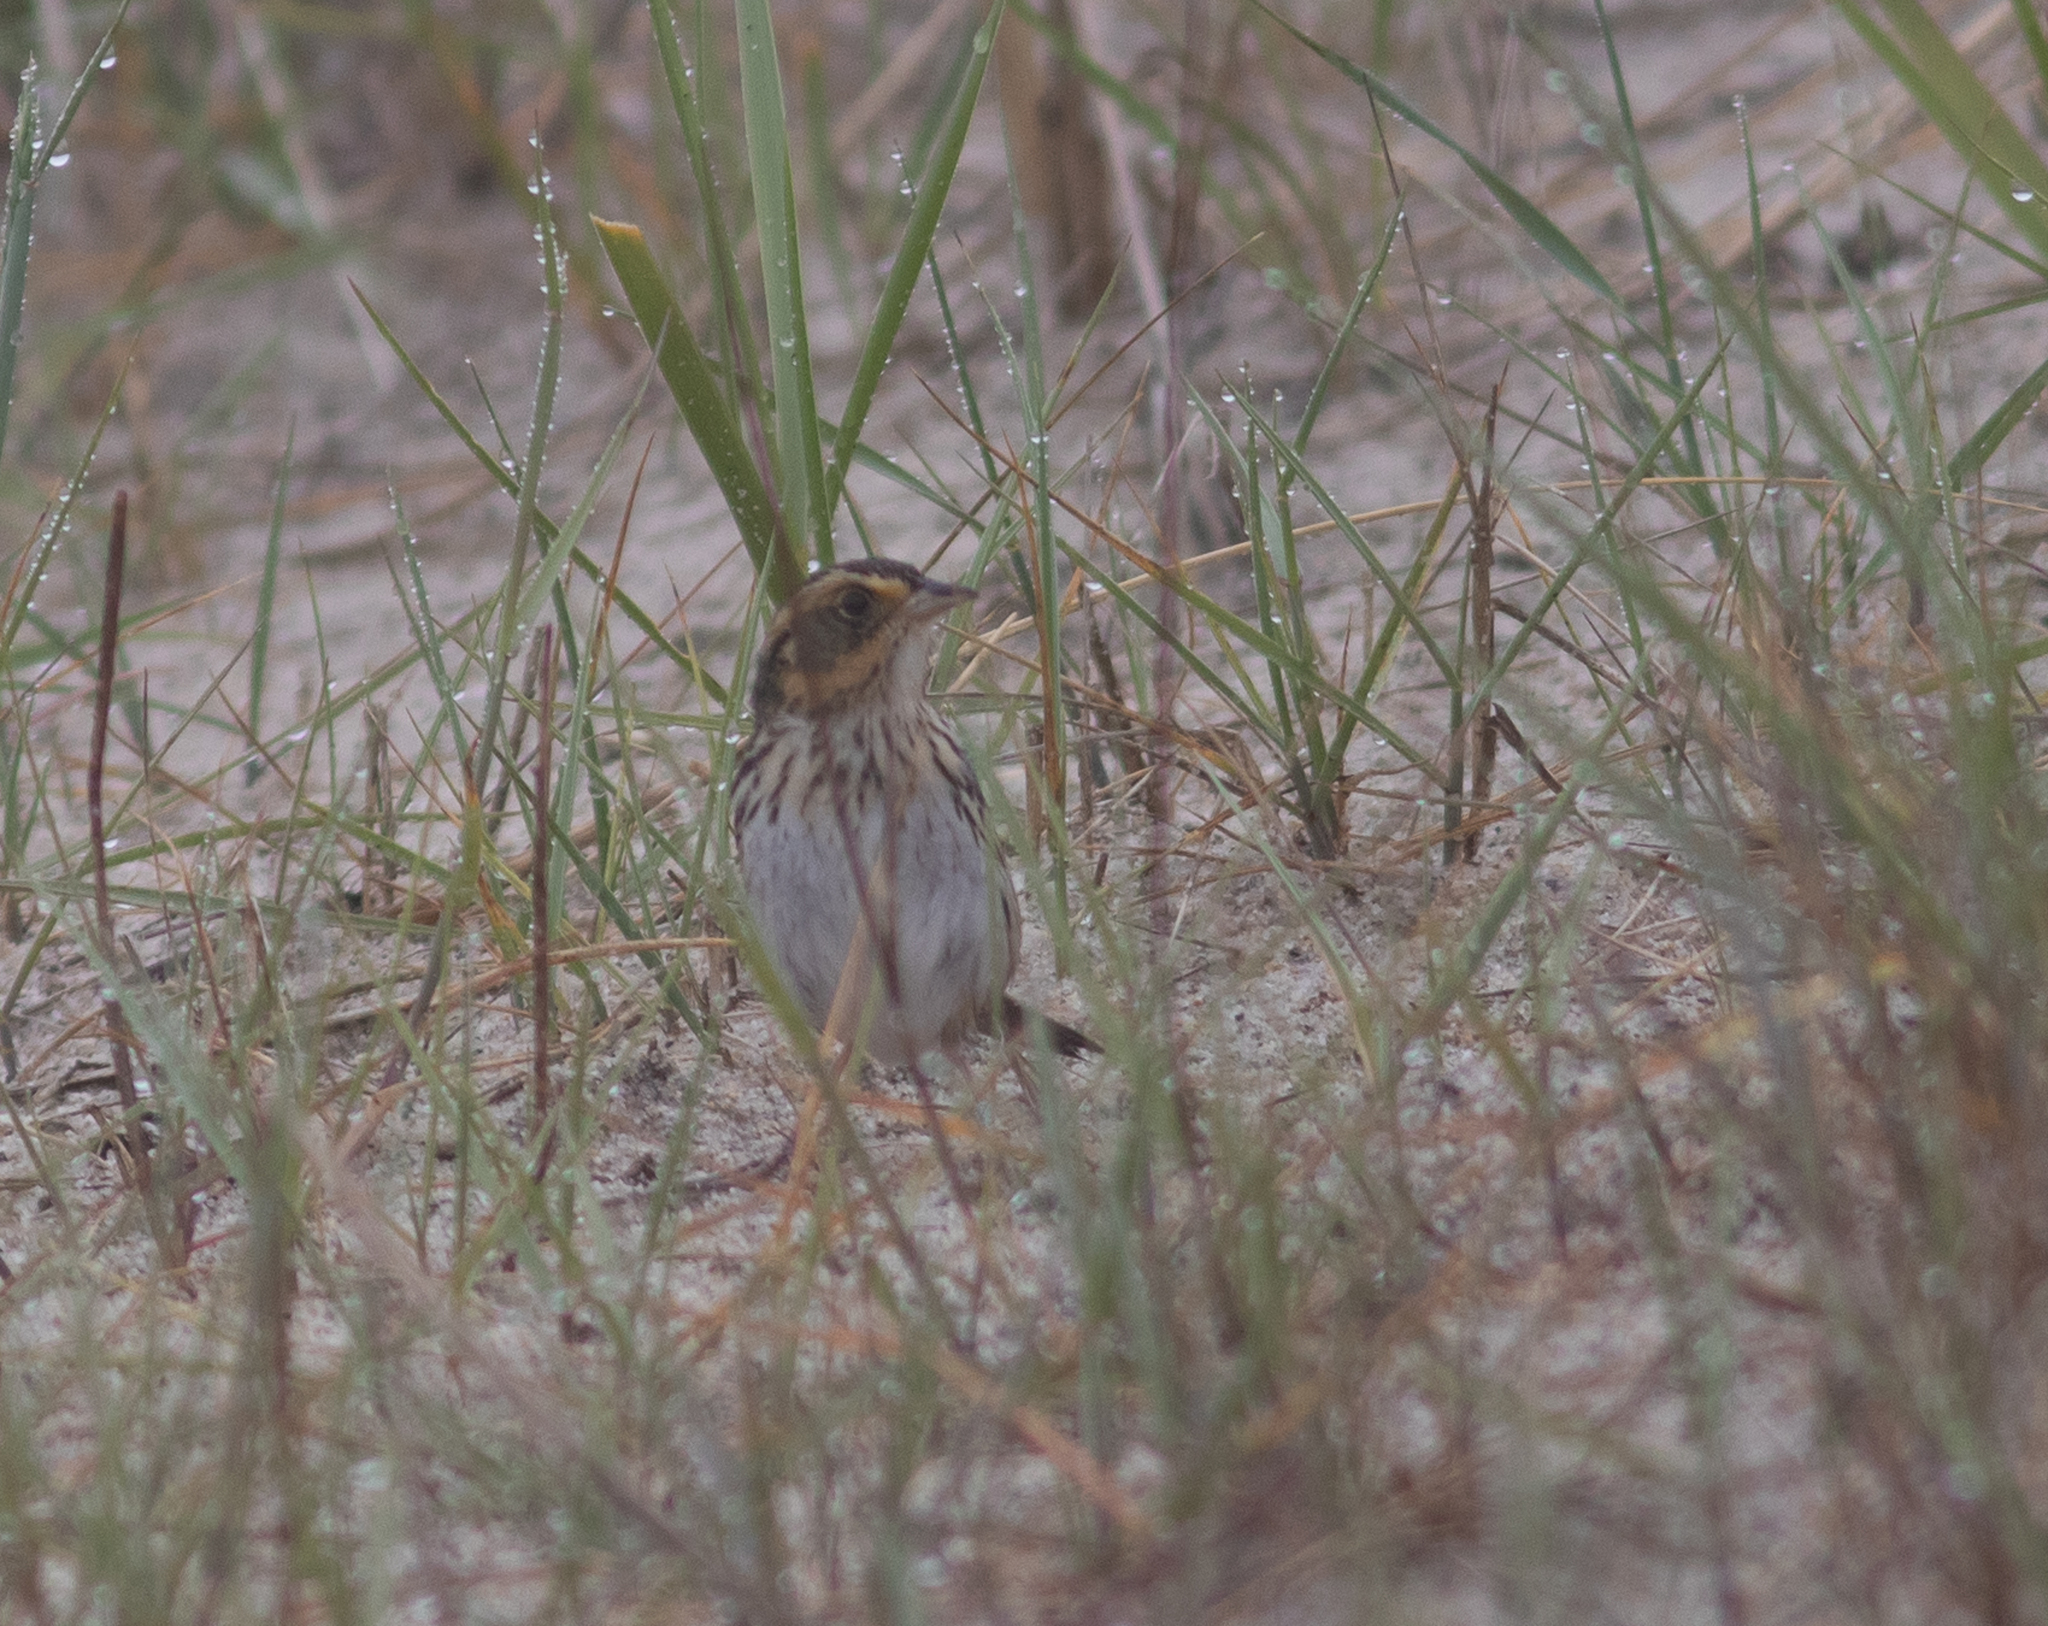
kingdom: Animalia
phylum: Chordata
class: Aves
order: Passeriformes
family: Passerellidae
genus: Ammospiza
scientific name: Ammospiza caudacuta
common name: Saltmarsh sparrow
